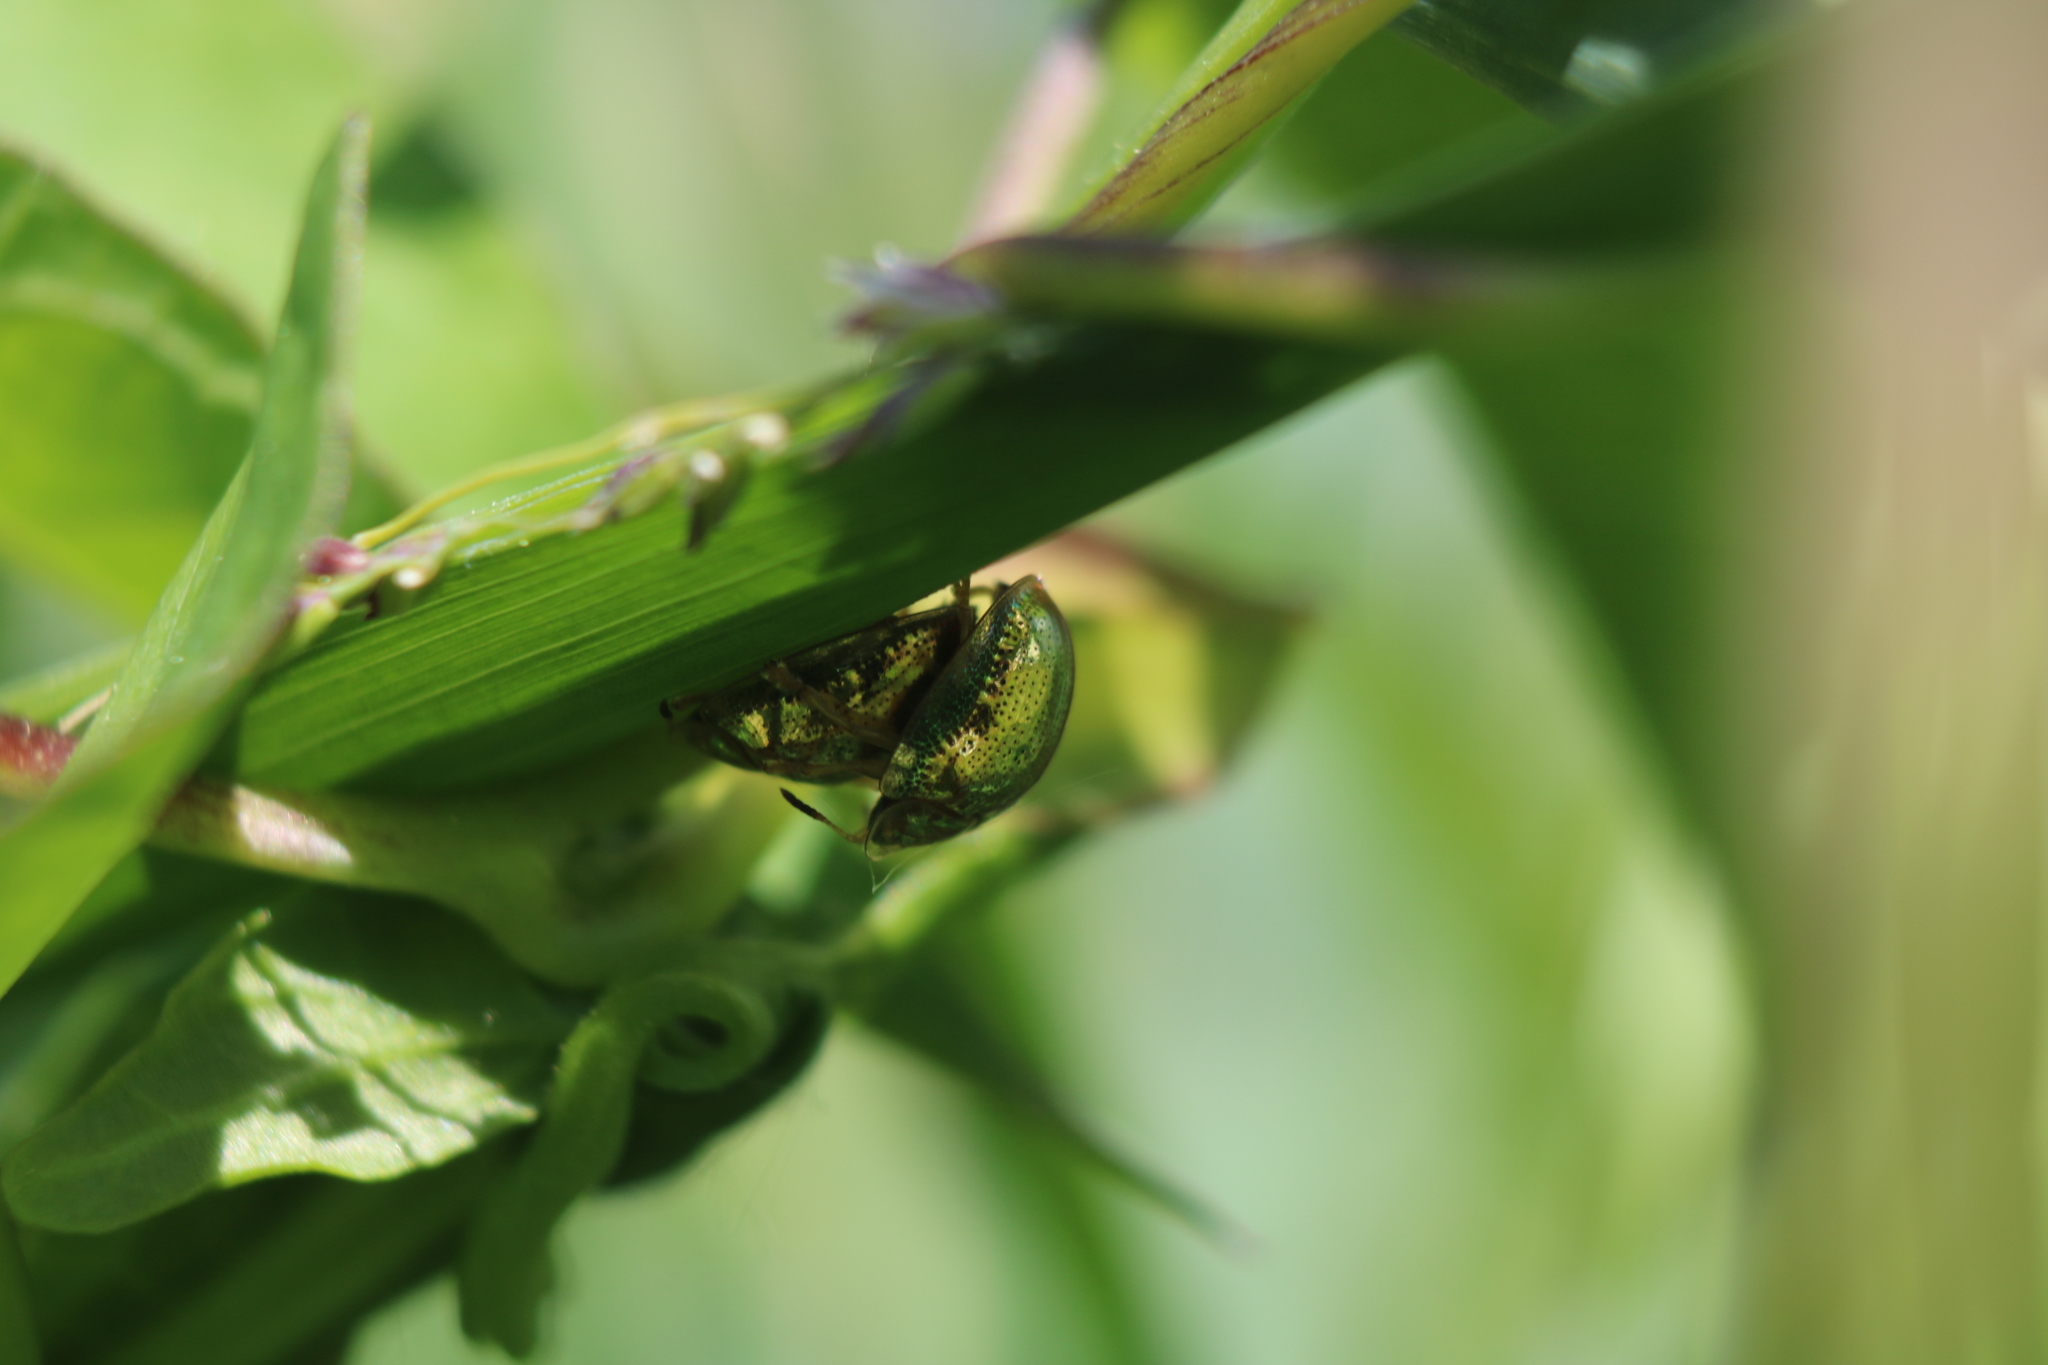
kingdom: Animalia
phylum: Arthropoda
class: Insecta
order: Coleoptera
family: Chrysomelidae
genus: Charidotella
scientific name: Charidotella sexpunctata
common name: Golden tortoise beetle
